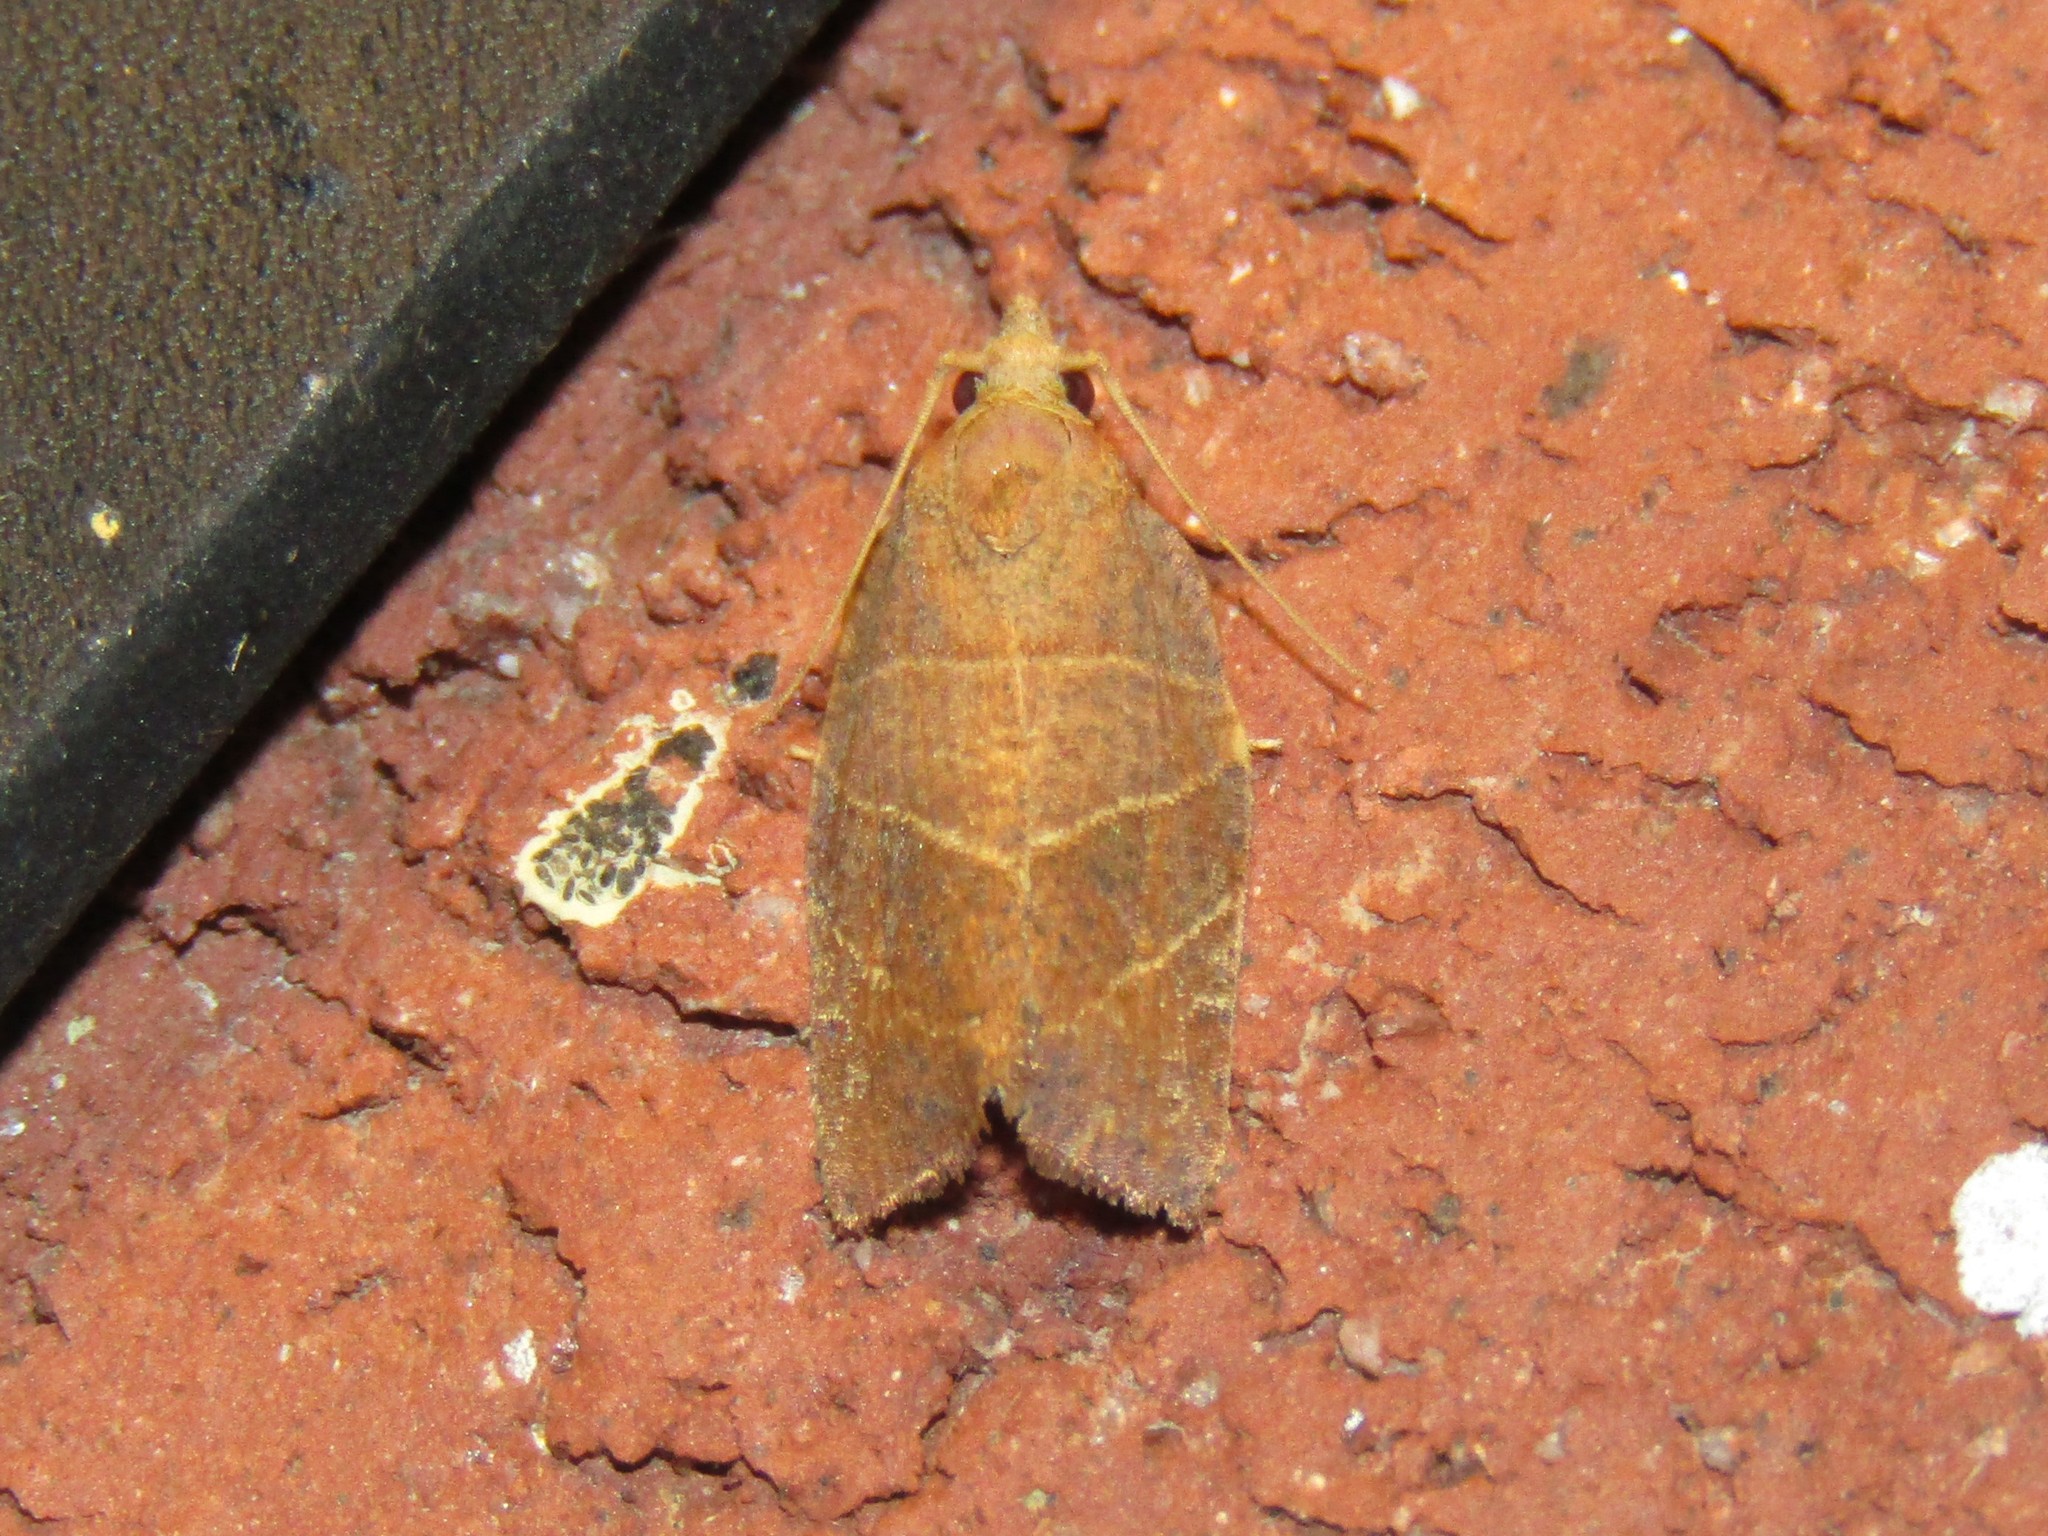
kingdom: Animalia
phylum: Arthropoda
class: Insecta
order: Lepidoptera
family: Tortricidae
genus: Pandemis
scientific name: Pandemis limitata
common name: Three-lined leafroller moth
